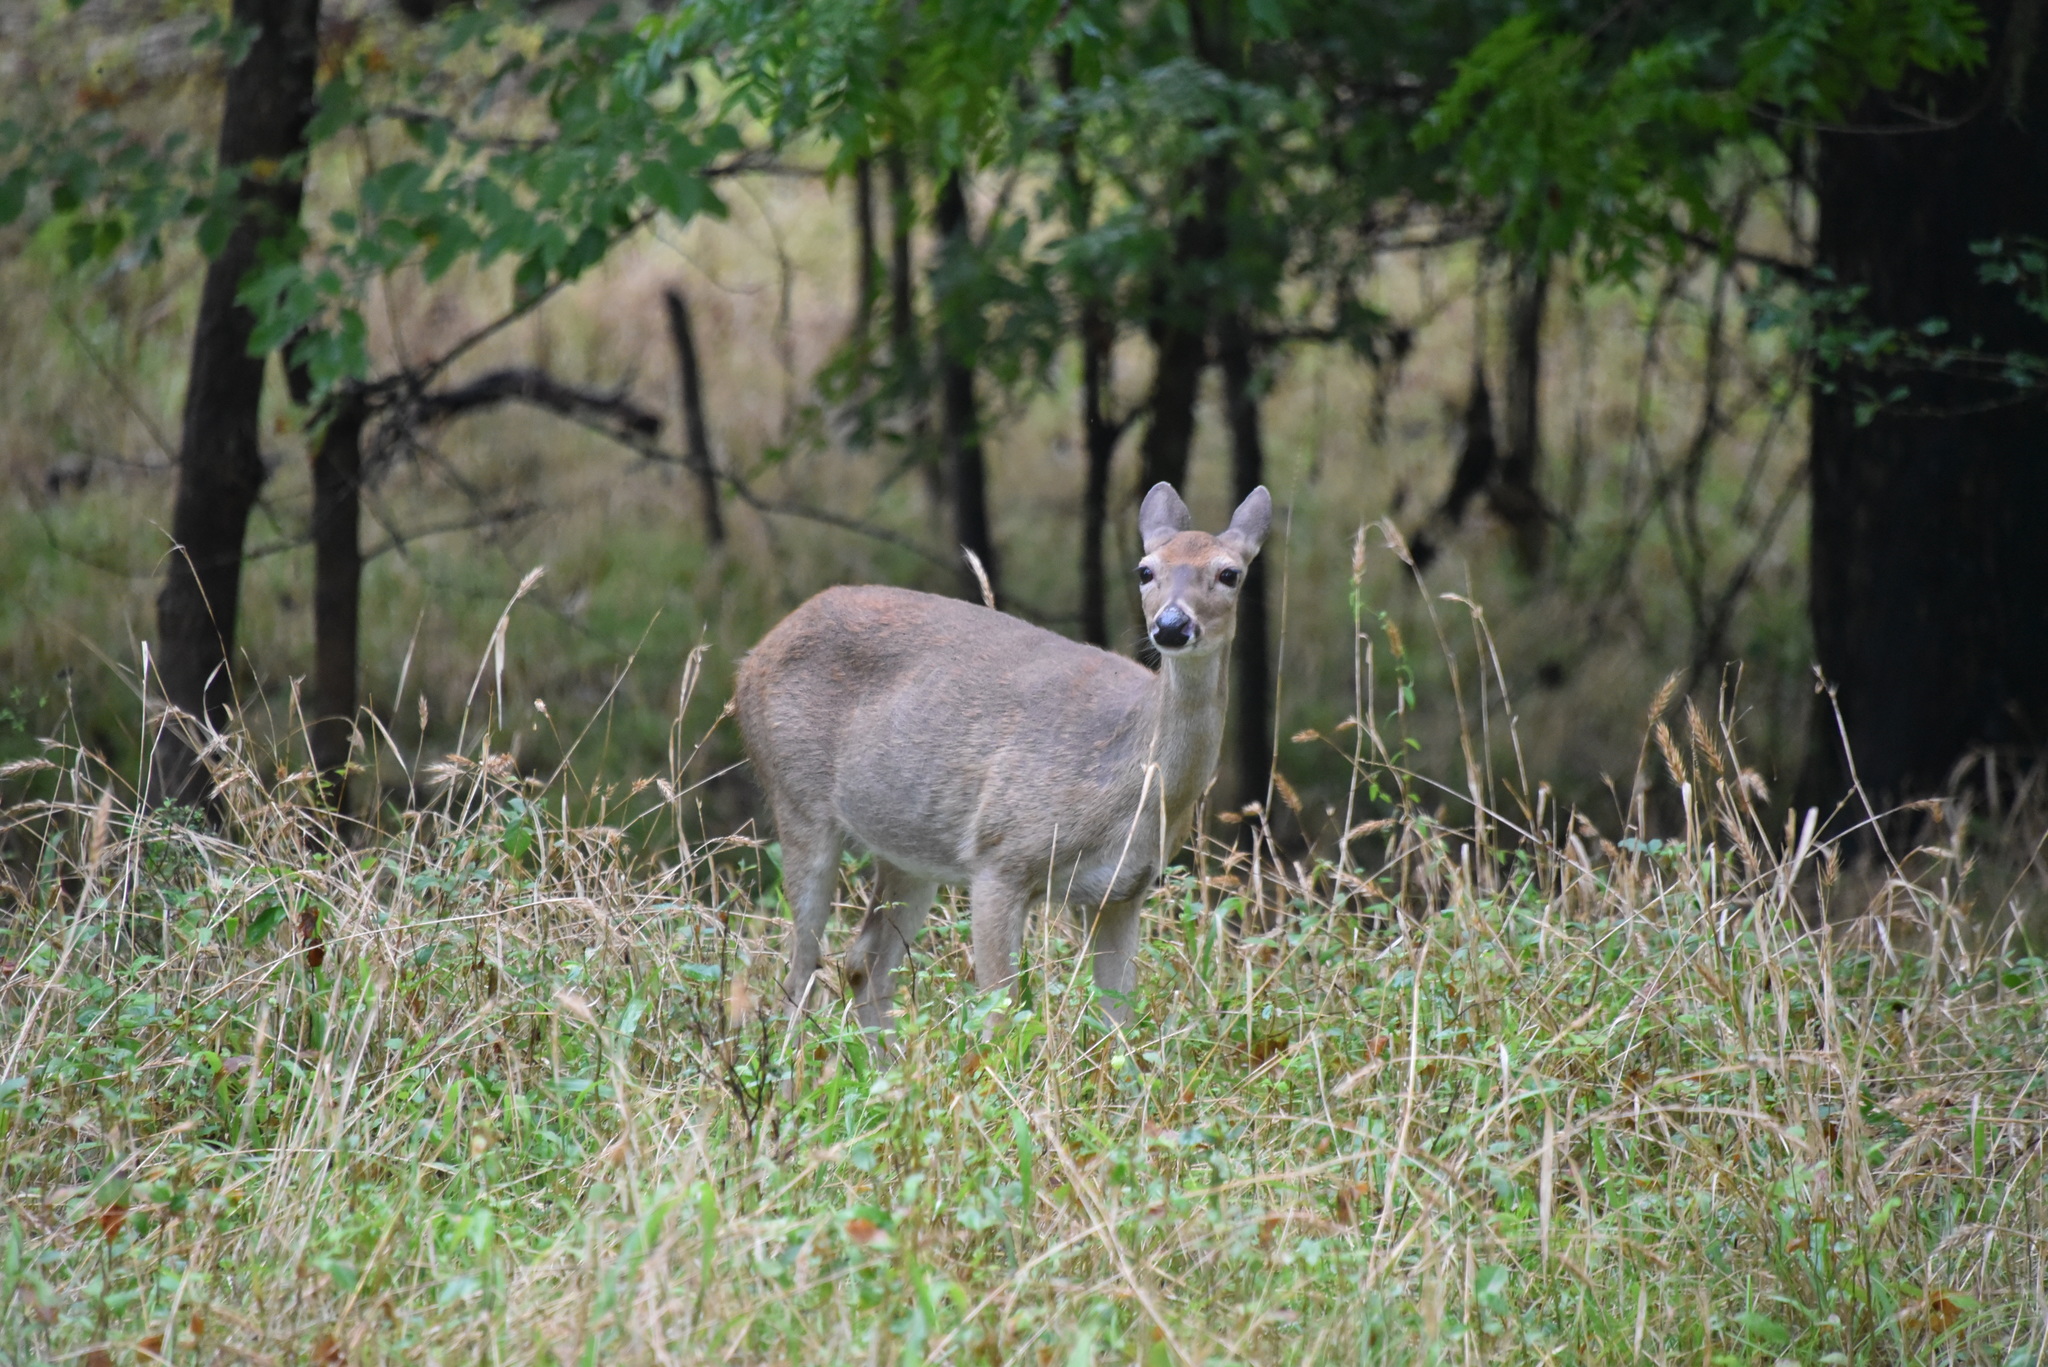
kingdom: Animalia
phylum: Chordata
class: Mammalia
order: Artiodactyla
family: Cervidae
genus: Odocoileus
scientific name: Odocoileus virginianus
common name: White-tailed deer
